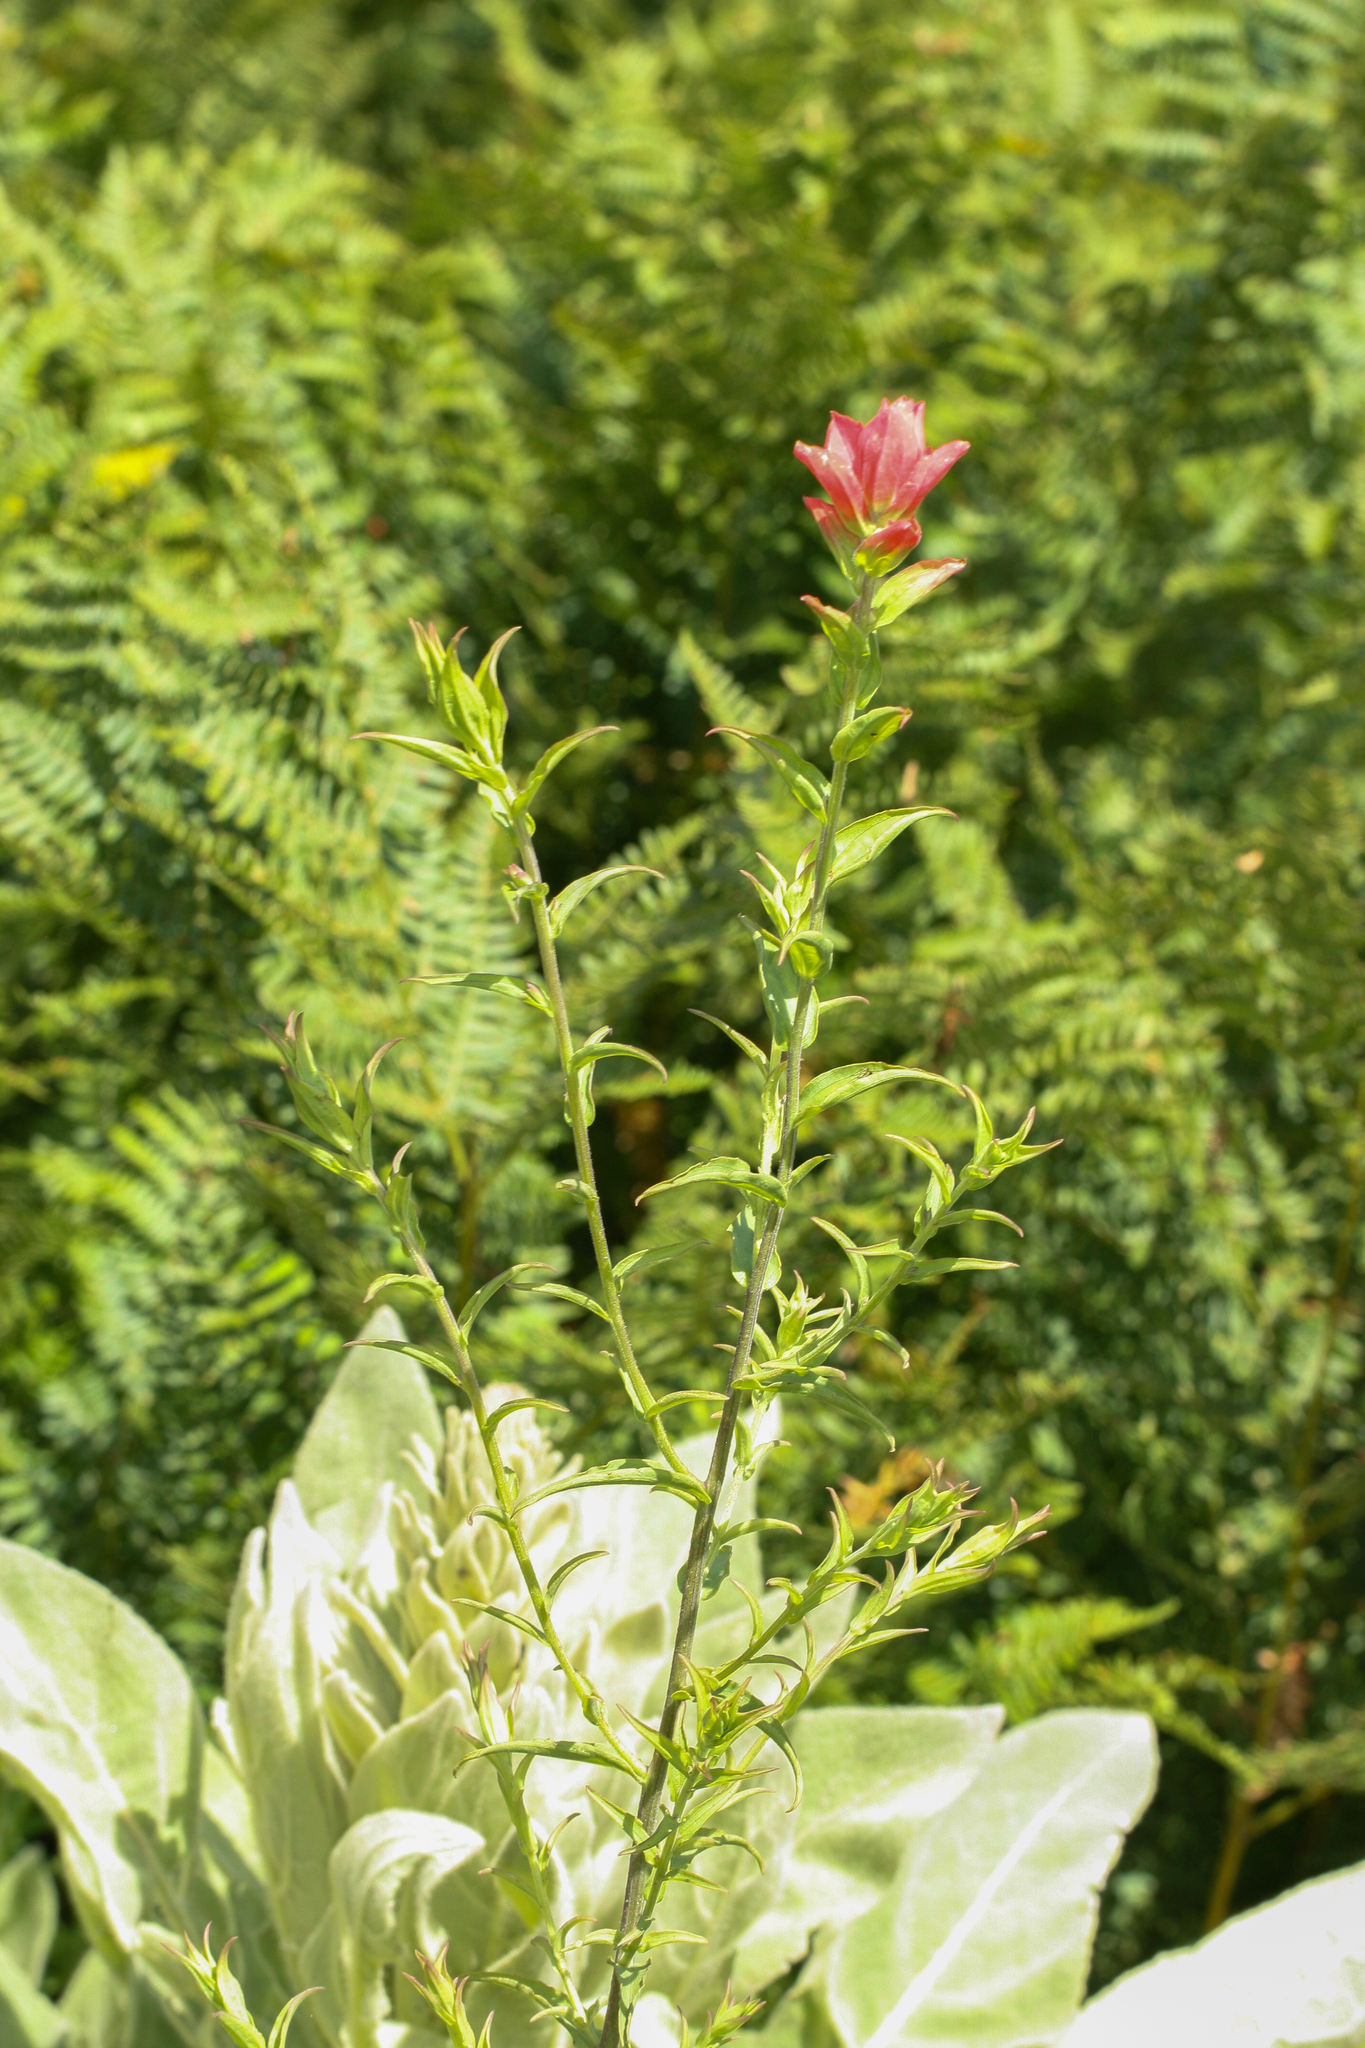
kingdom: Plantae
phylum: Tracheophyta
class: Magnoliopsida
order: Lamiales
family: Orobanchaceae
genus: Castilleja
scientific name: Castilleja nelsonii
